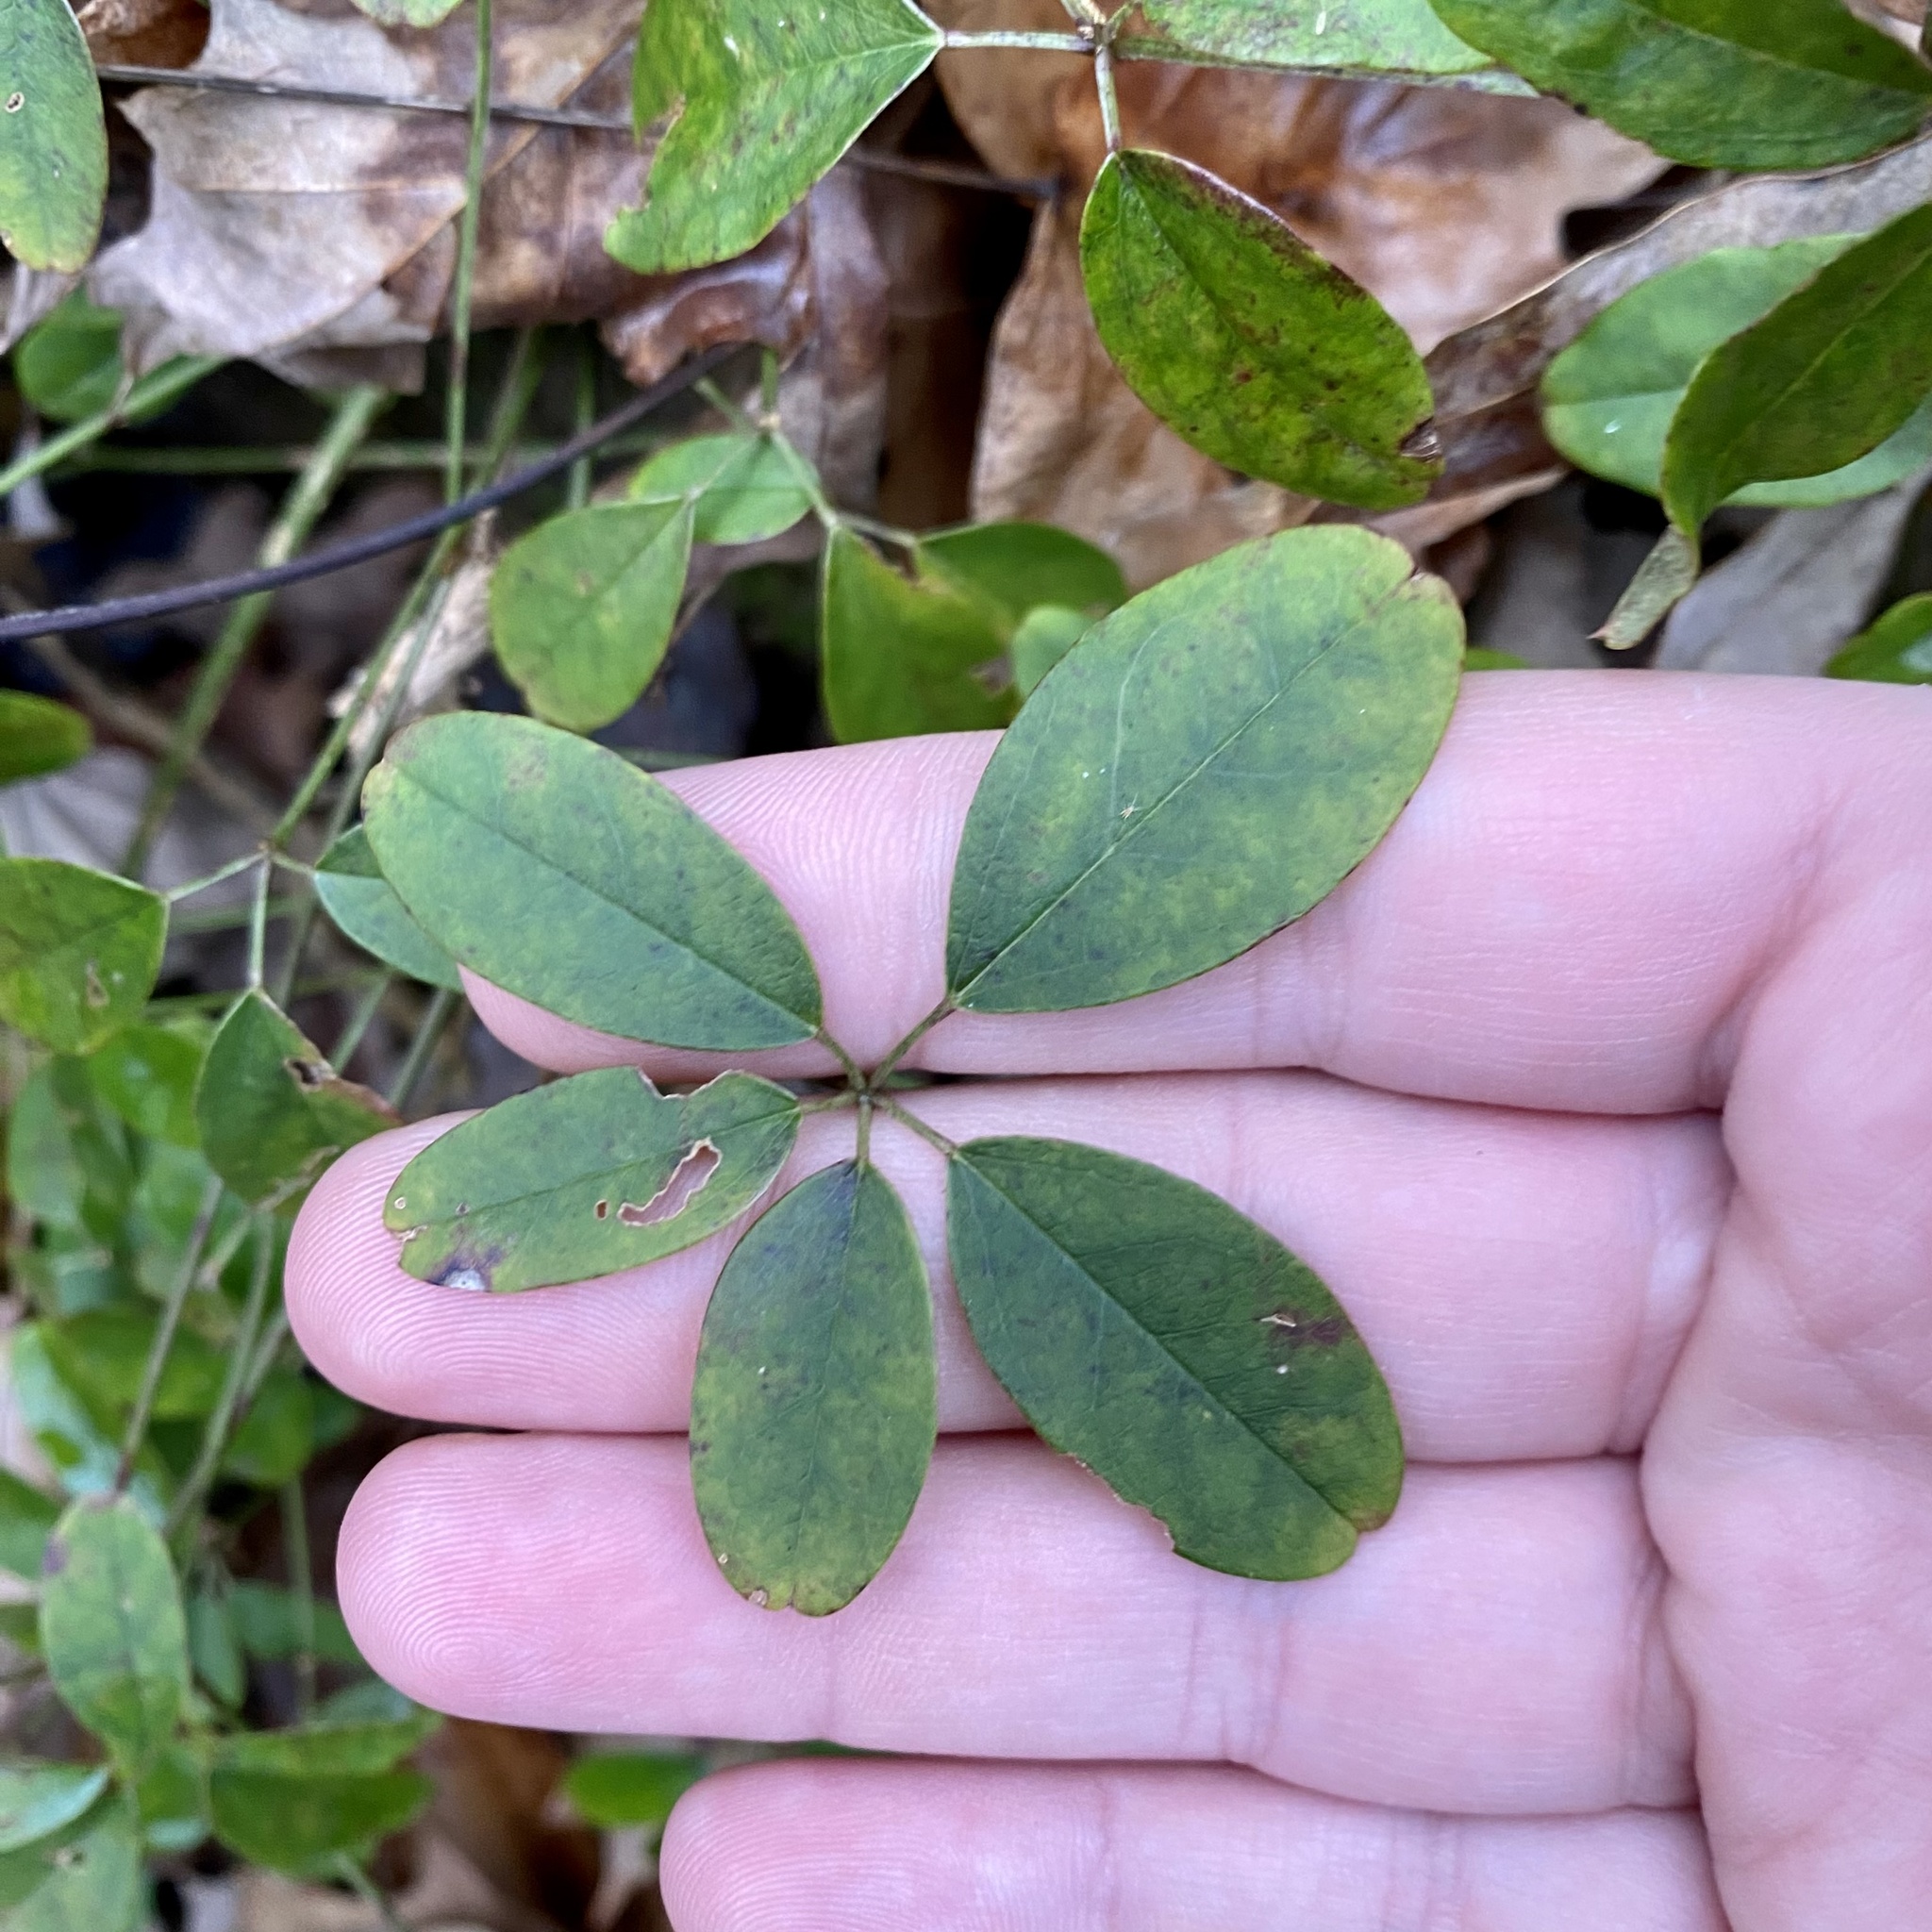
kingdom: Plantae
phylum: Tracheophyta
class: Magnoliopsida
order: Ranunculales
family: Lardizabalaceae
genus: Akebia
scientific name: Akebia quinata
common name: Five-leaf akebia
